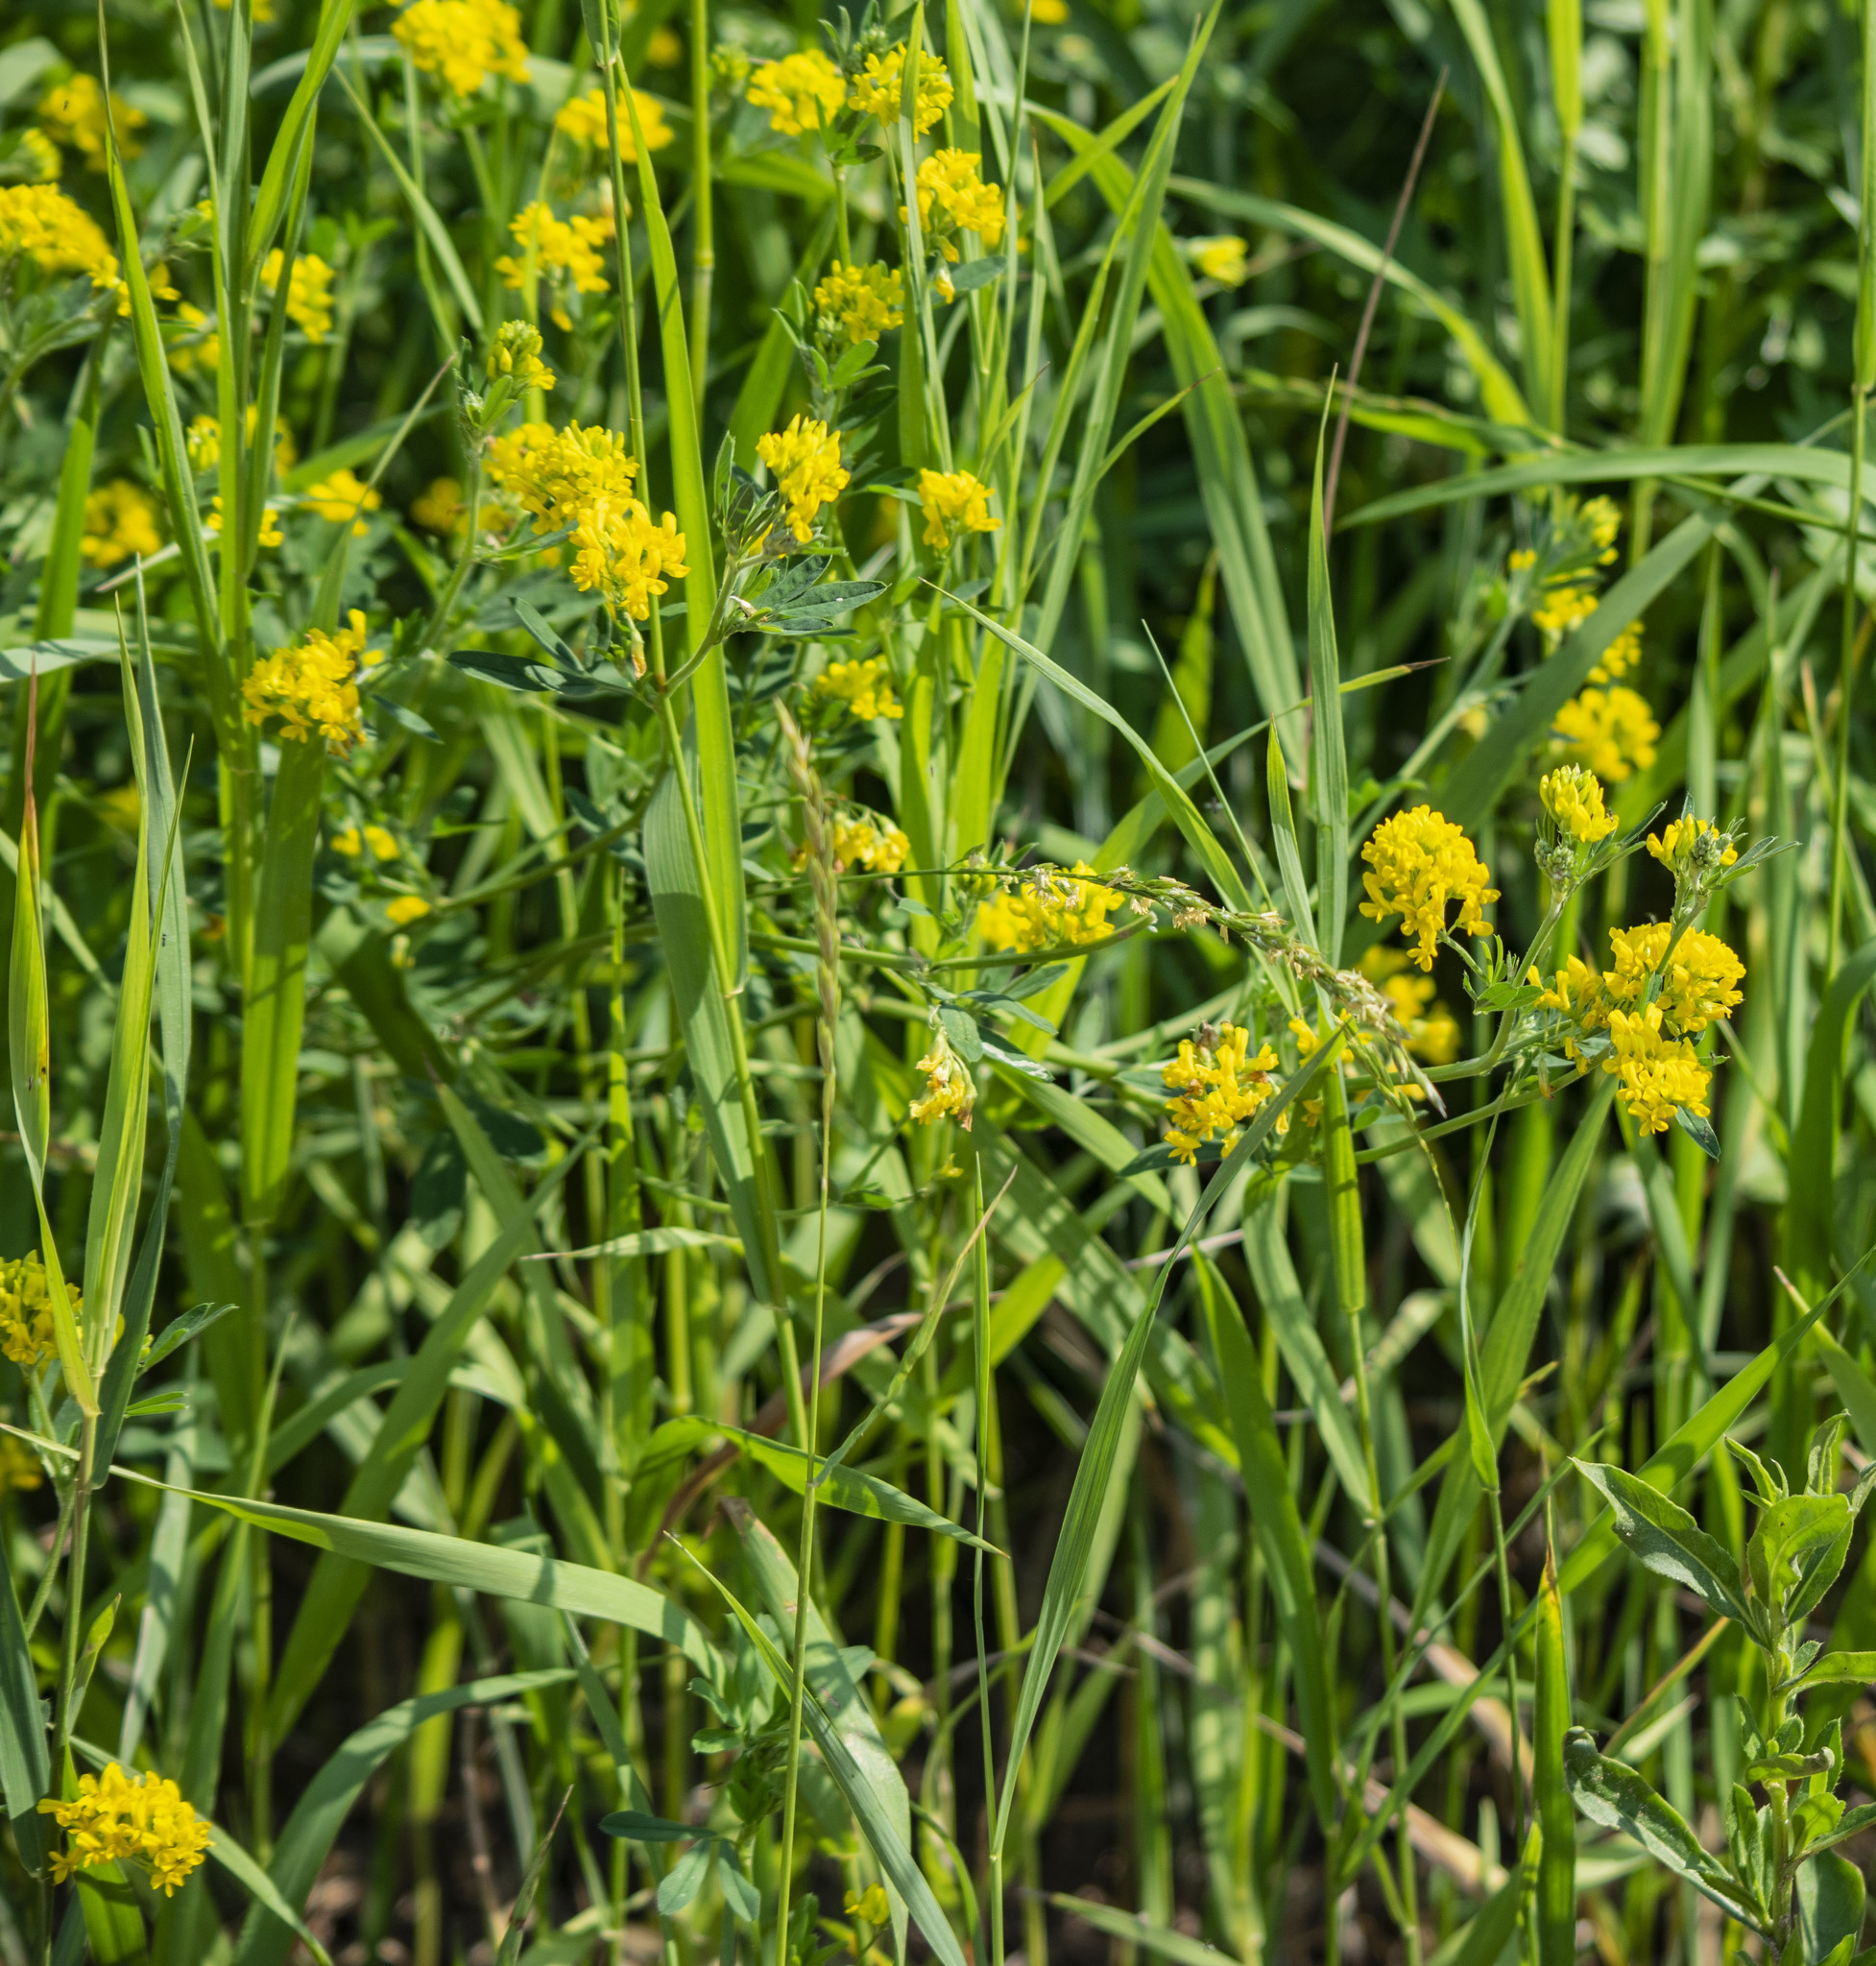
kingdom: Plantae
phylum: Tracheophyta
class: Magnoliopsida
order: Fabales
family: Fabaceae
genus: Medicago
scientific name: Medicago falcata
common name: Sickle medick
